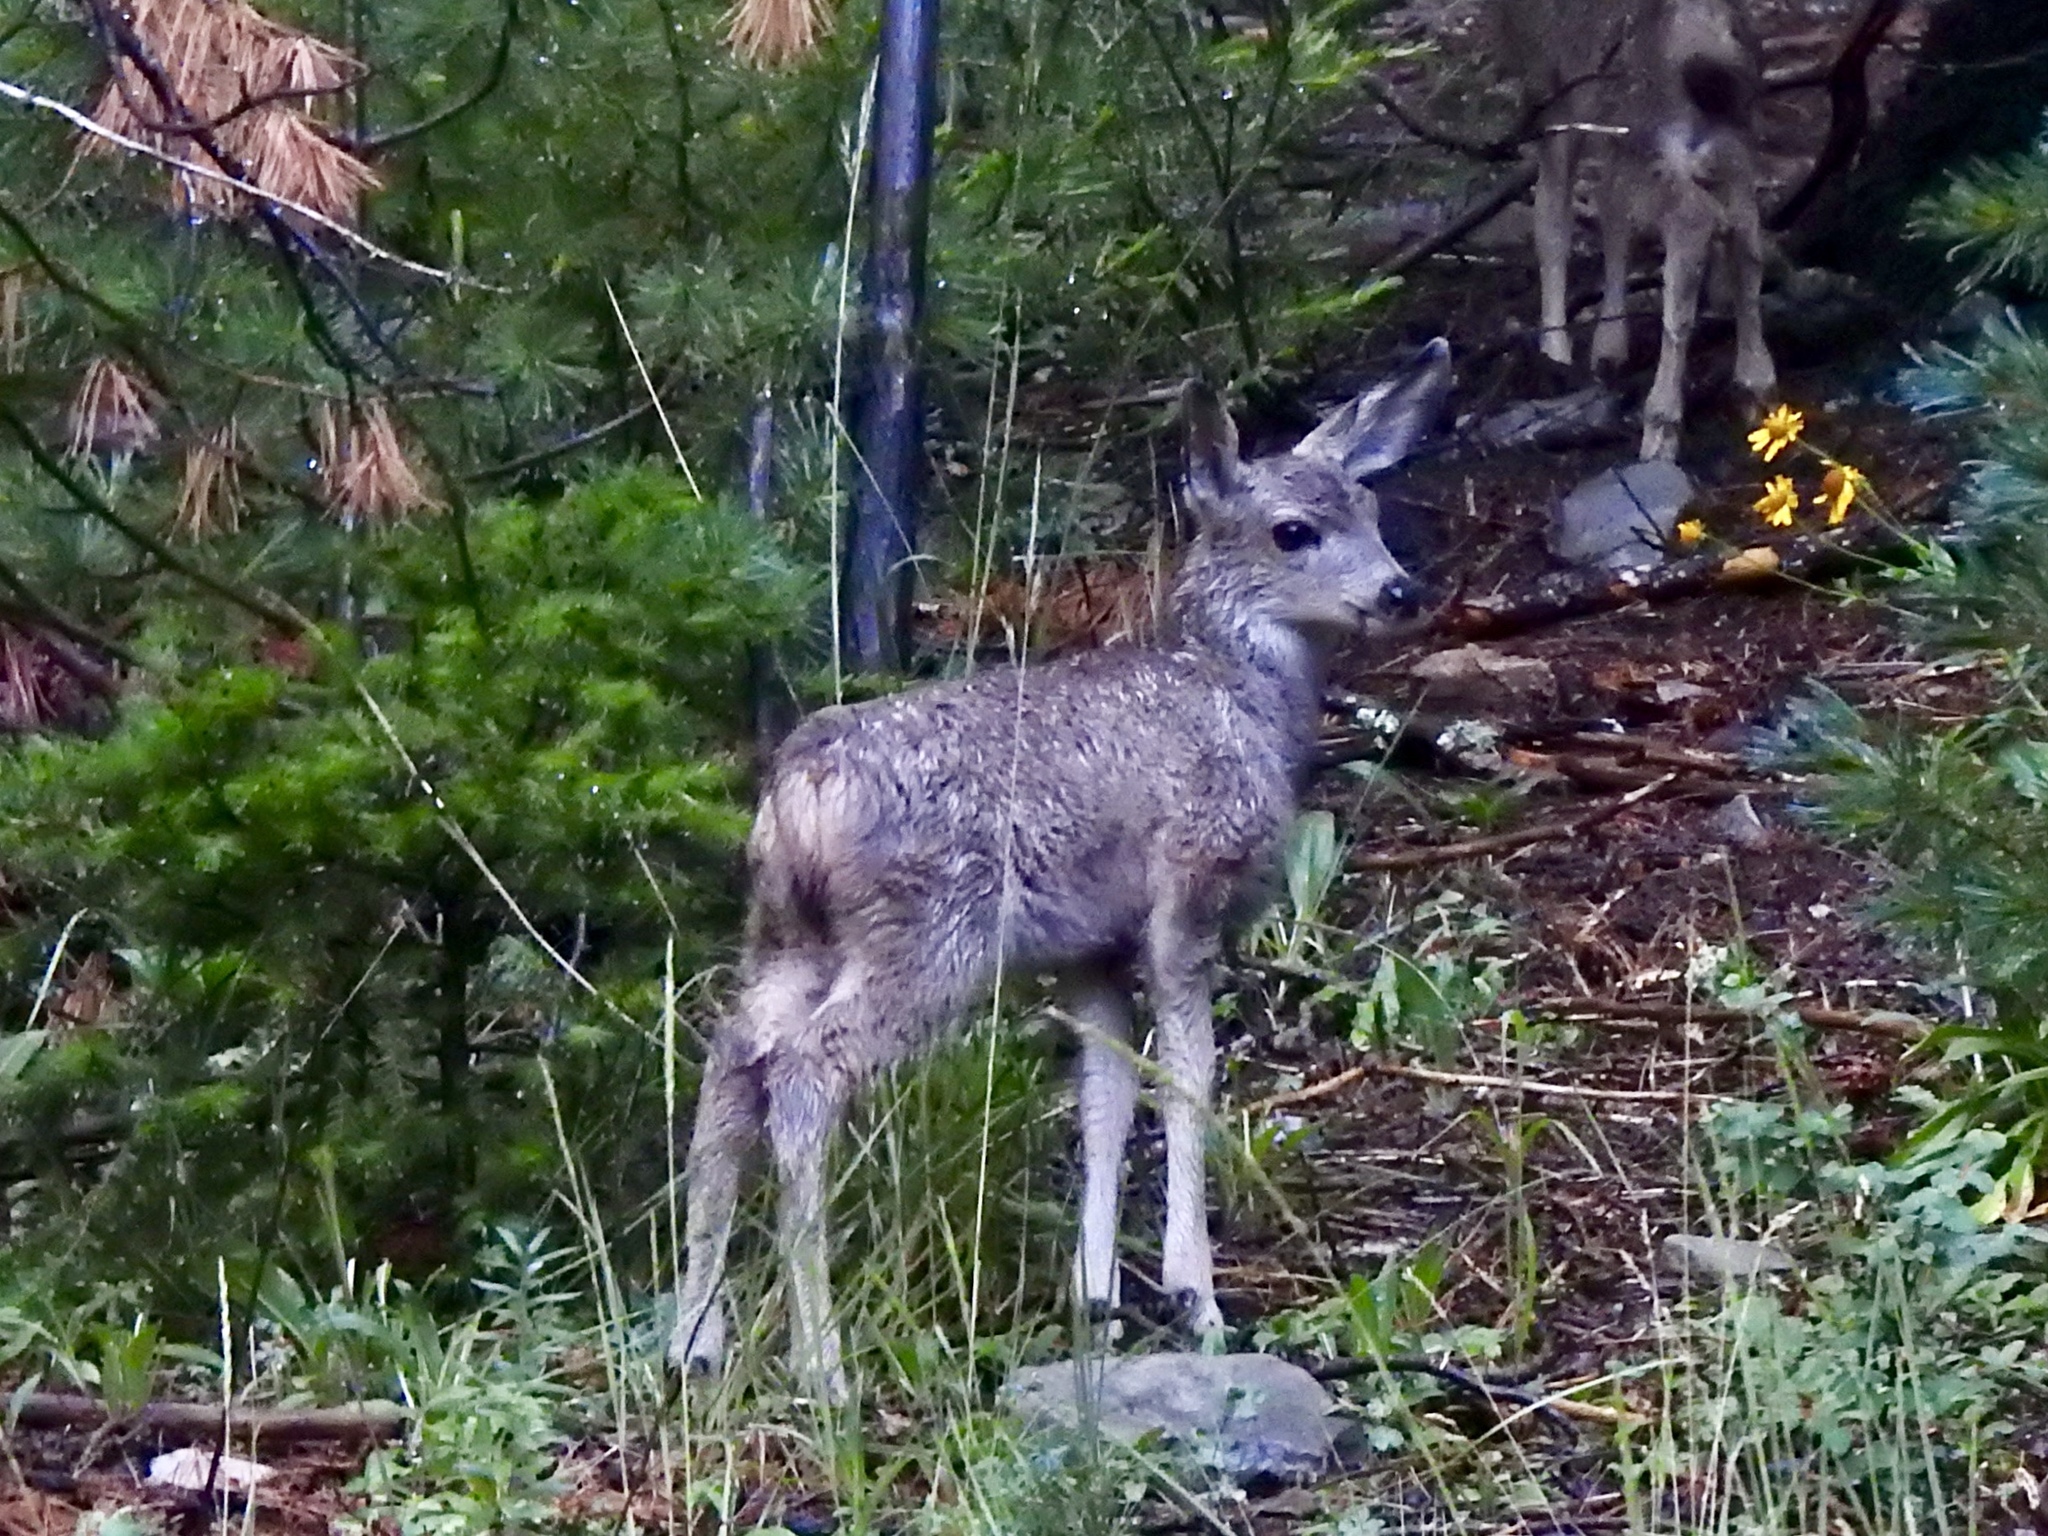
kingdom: Animalia
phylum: Chordata
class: Mammalia
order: Artiodactyla
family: Cervidae
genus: Odocoileus
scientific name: Odocoileus hemionus
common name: Mule deer
